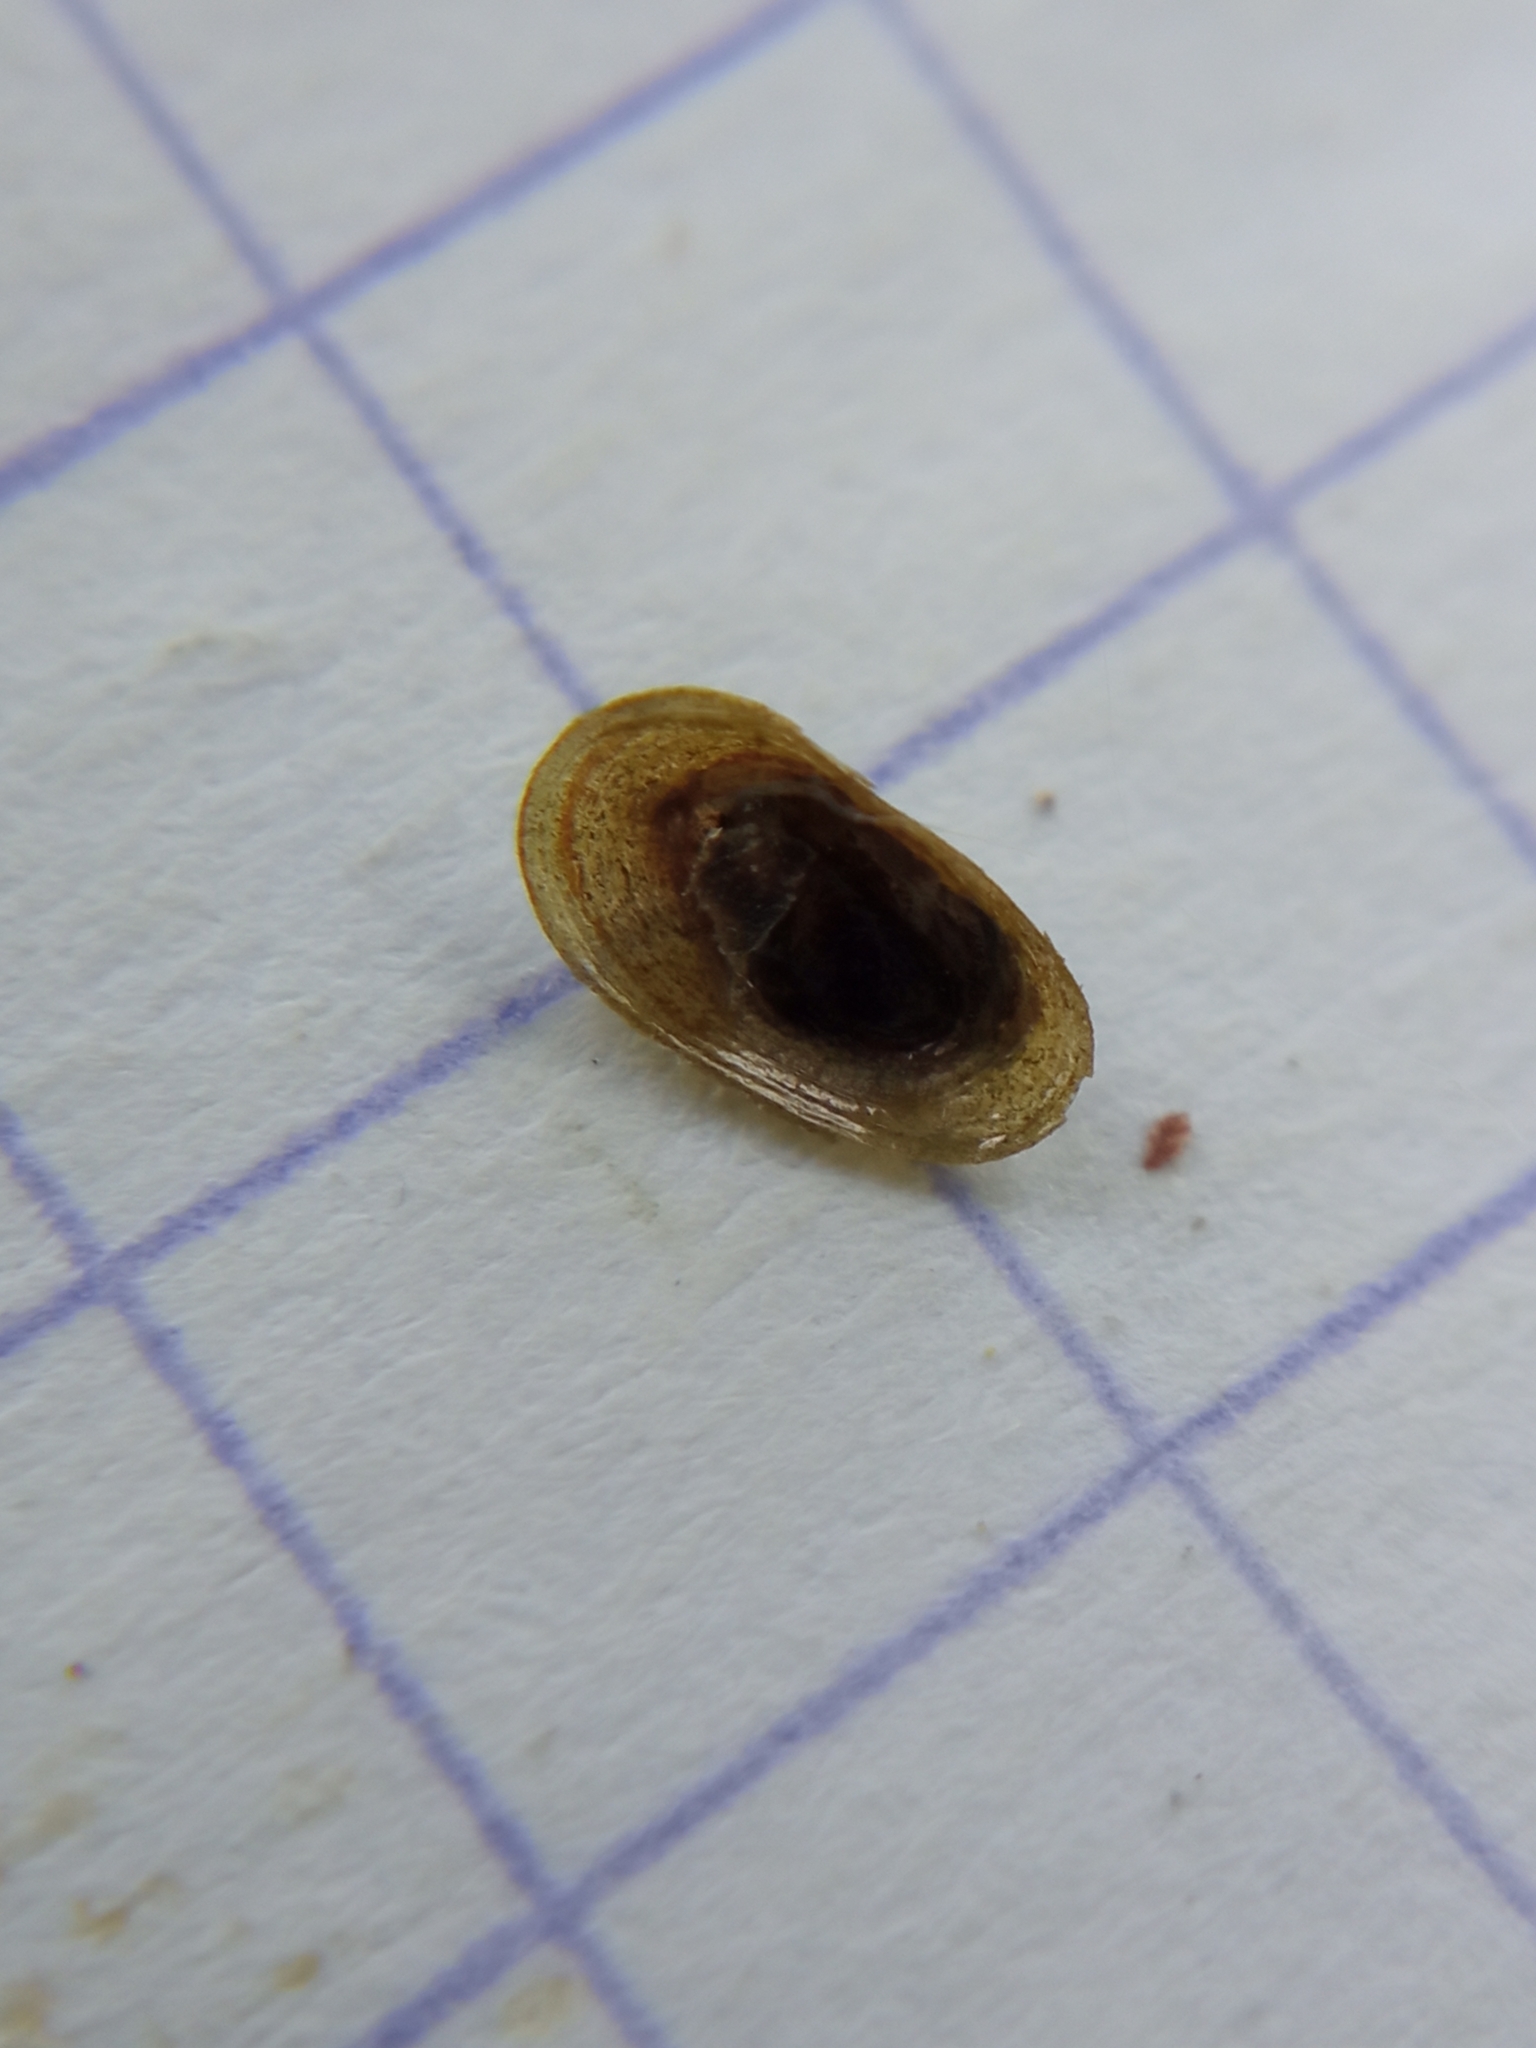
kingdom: Animalia
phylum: Mollusca
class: Gastropoda
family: Acroloxidae
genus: Acroloxus
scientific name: Acroloxus lacustris
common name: Lake limpet
